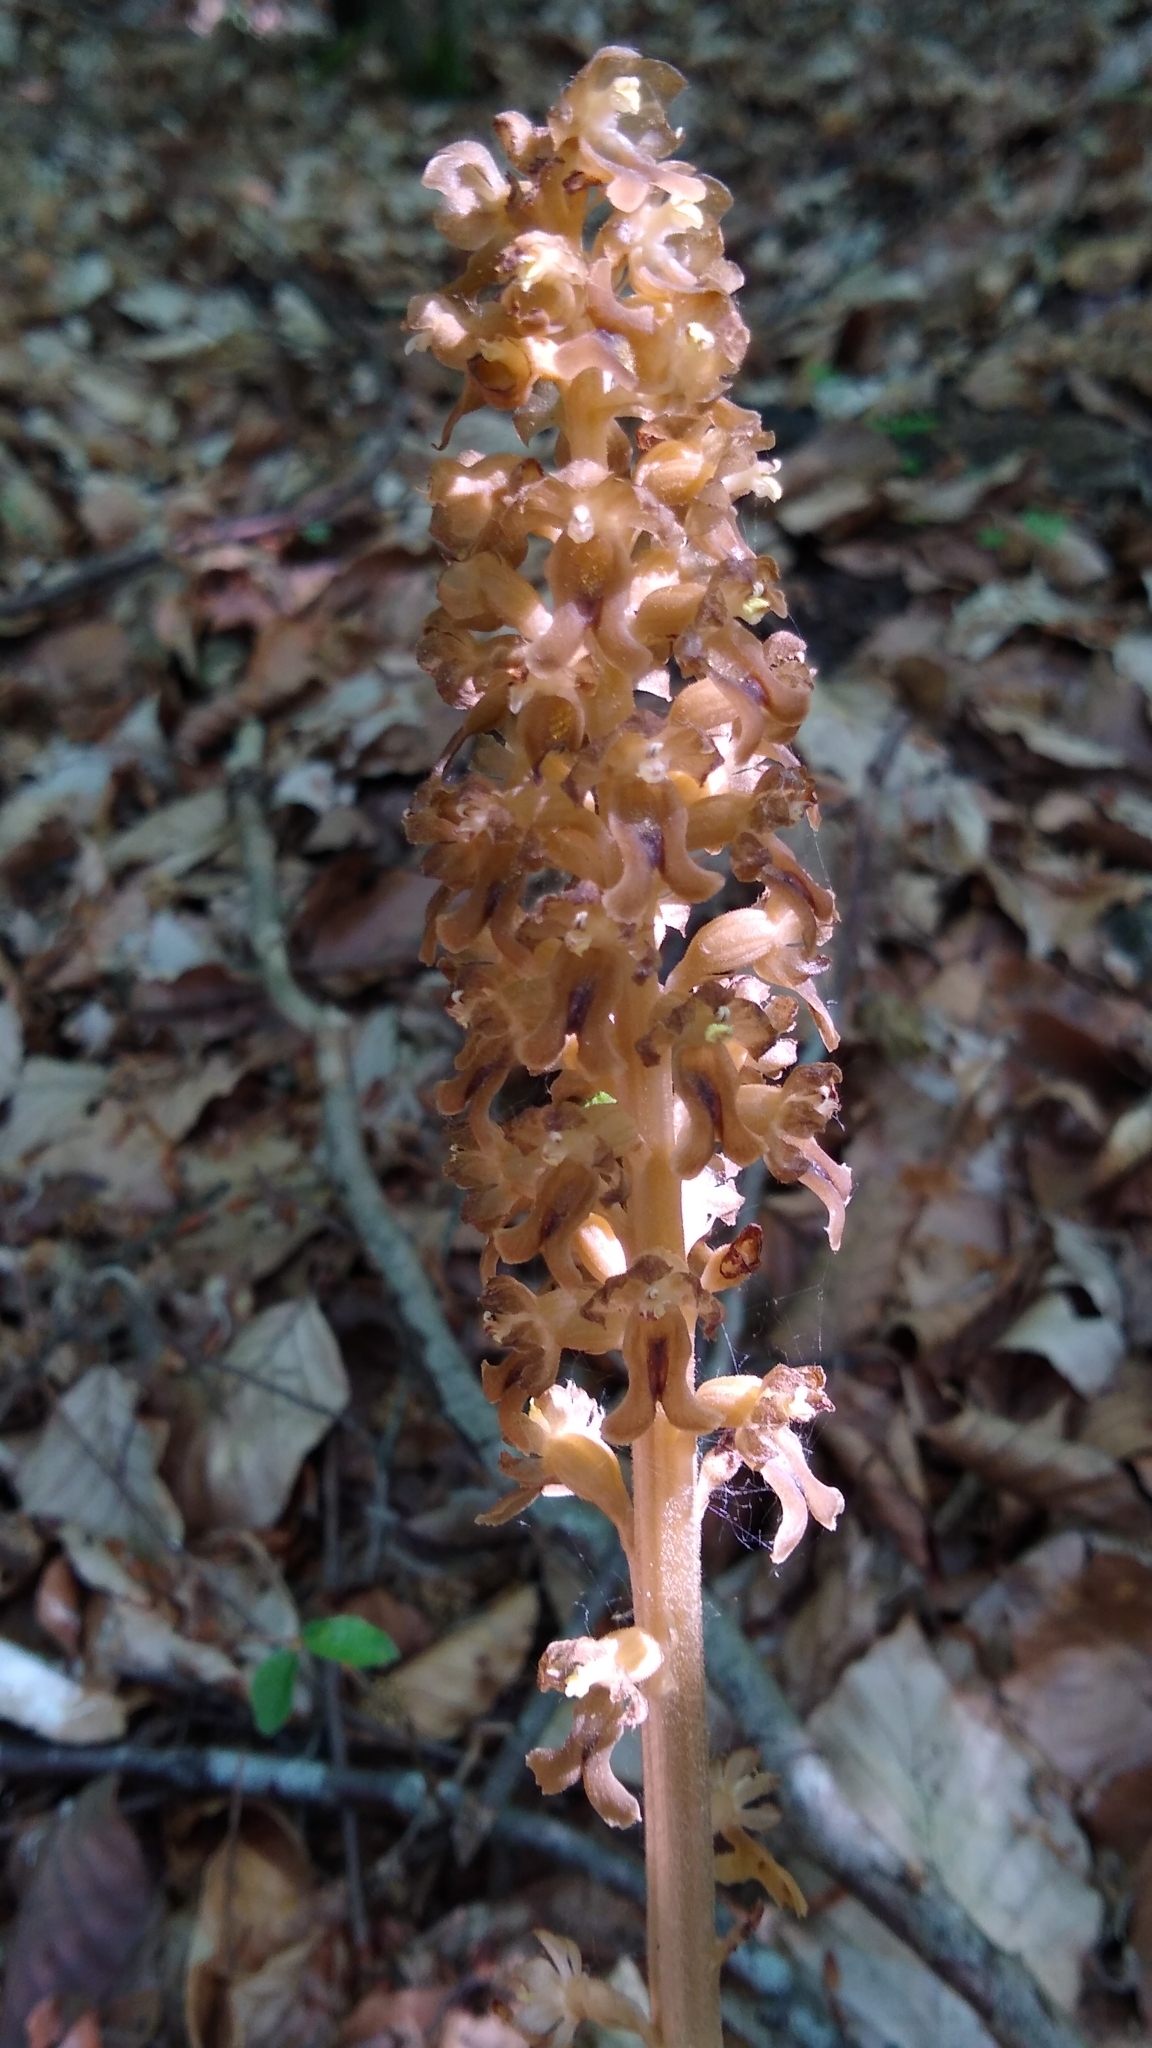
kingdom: Plantae
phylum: Tracheophyta
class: Liliopsida
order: Asparagales
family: Orchidaceae
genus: Neottia
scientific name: Neottia nidus-avis
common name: Bird's-nest orchid
